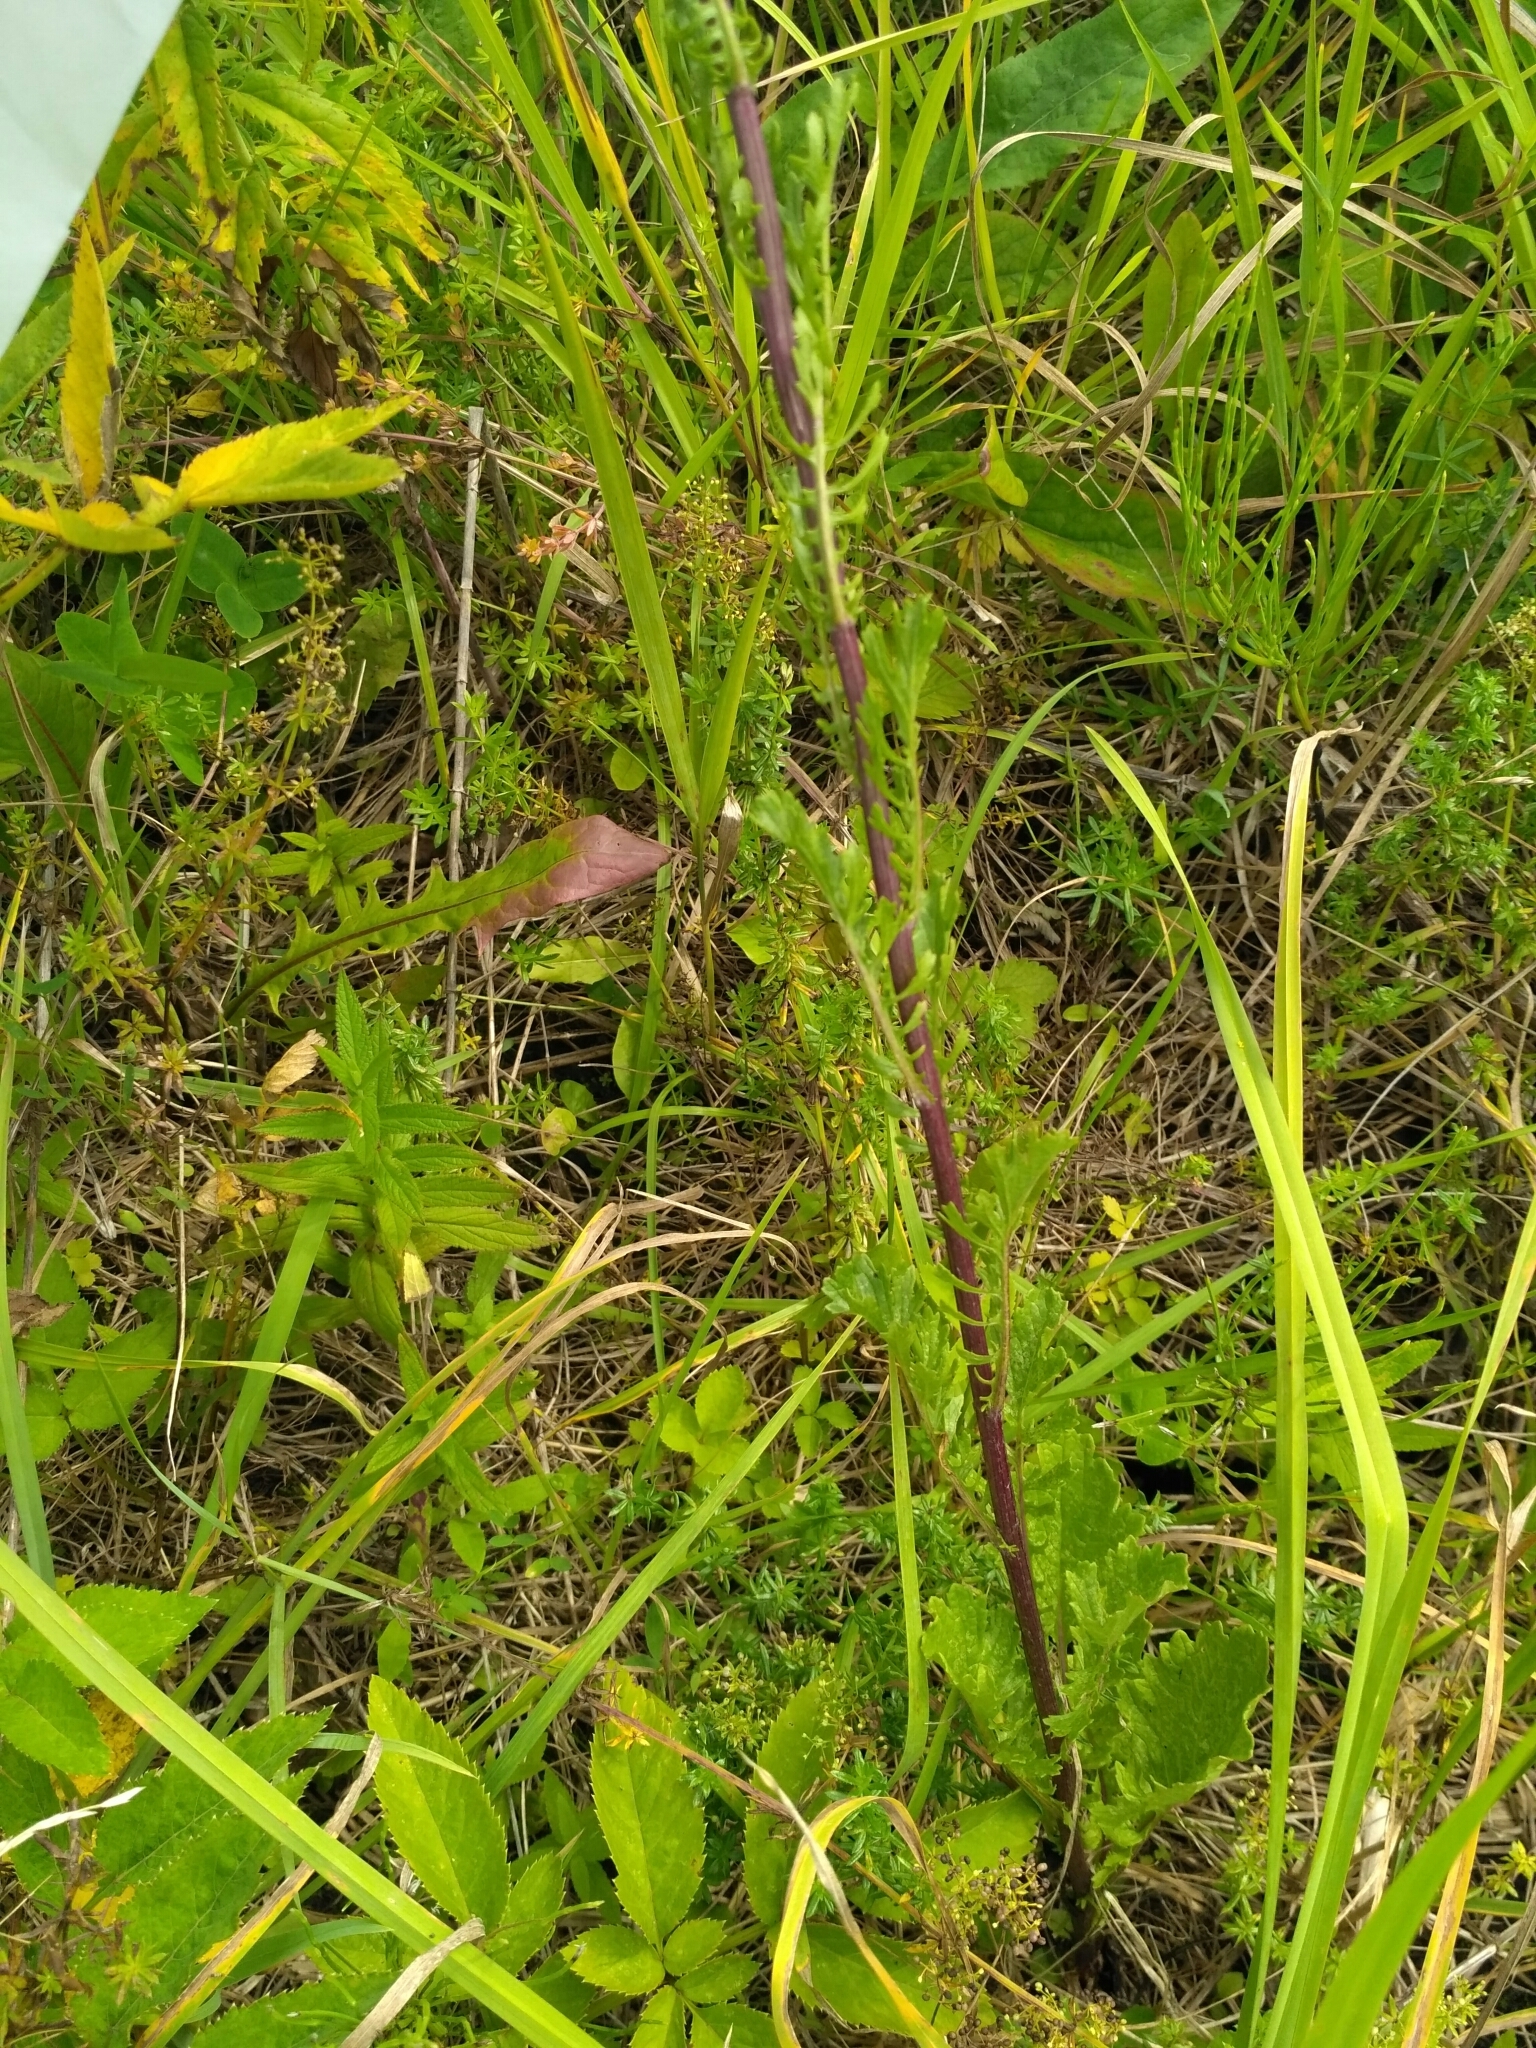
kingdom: Plantae
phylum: Tracheophyta
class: Magnoliopsida
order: Asterales
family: Asteraceae
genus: Jacobaea
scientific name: Jacobaea vulgaris
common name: Stinking willie
